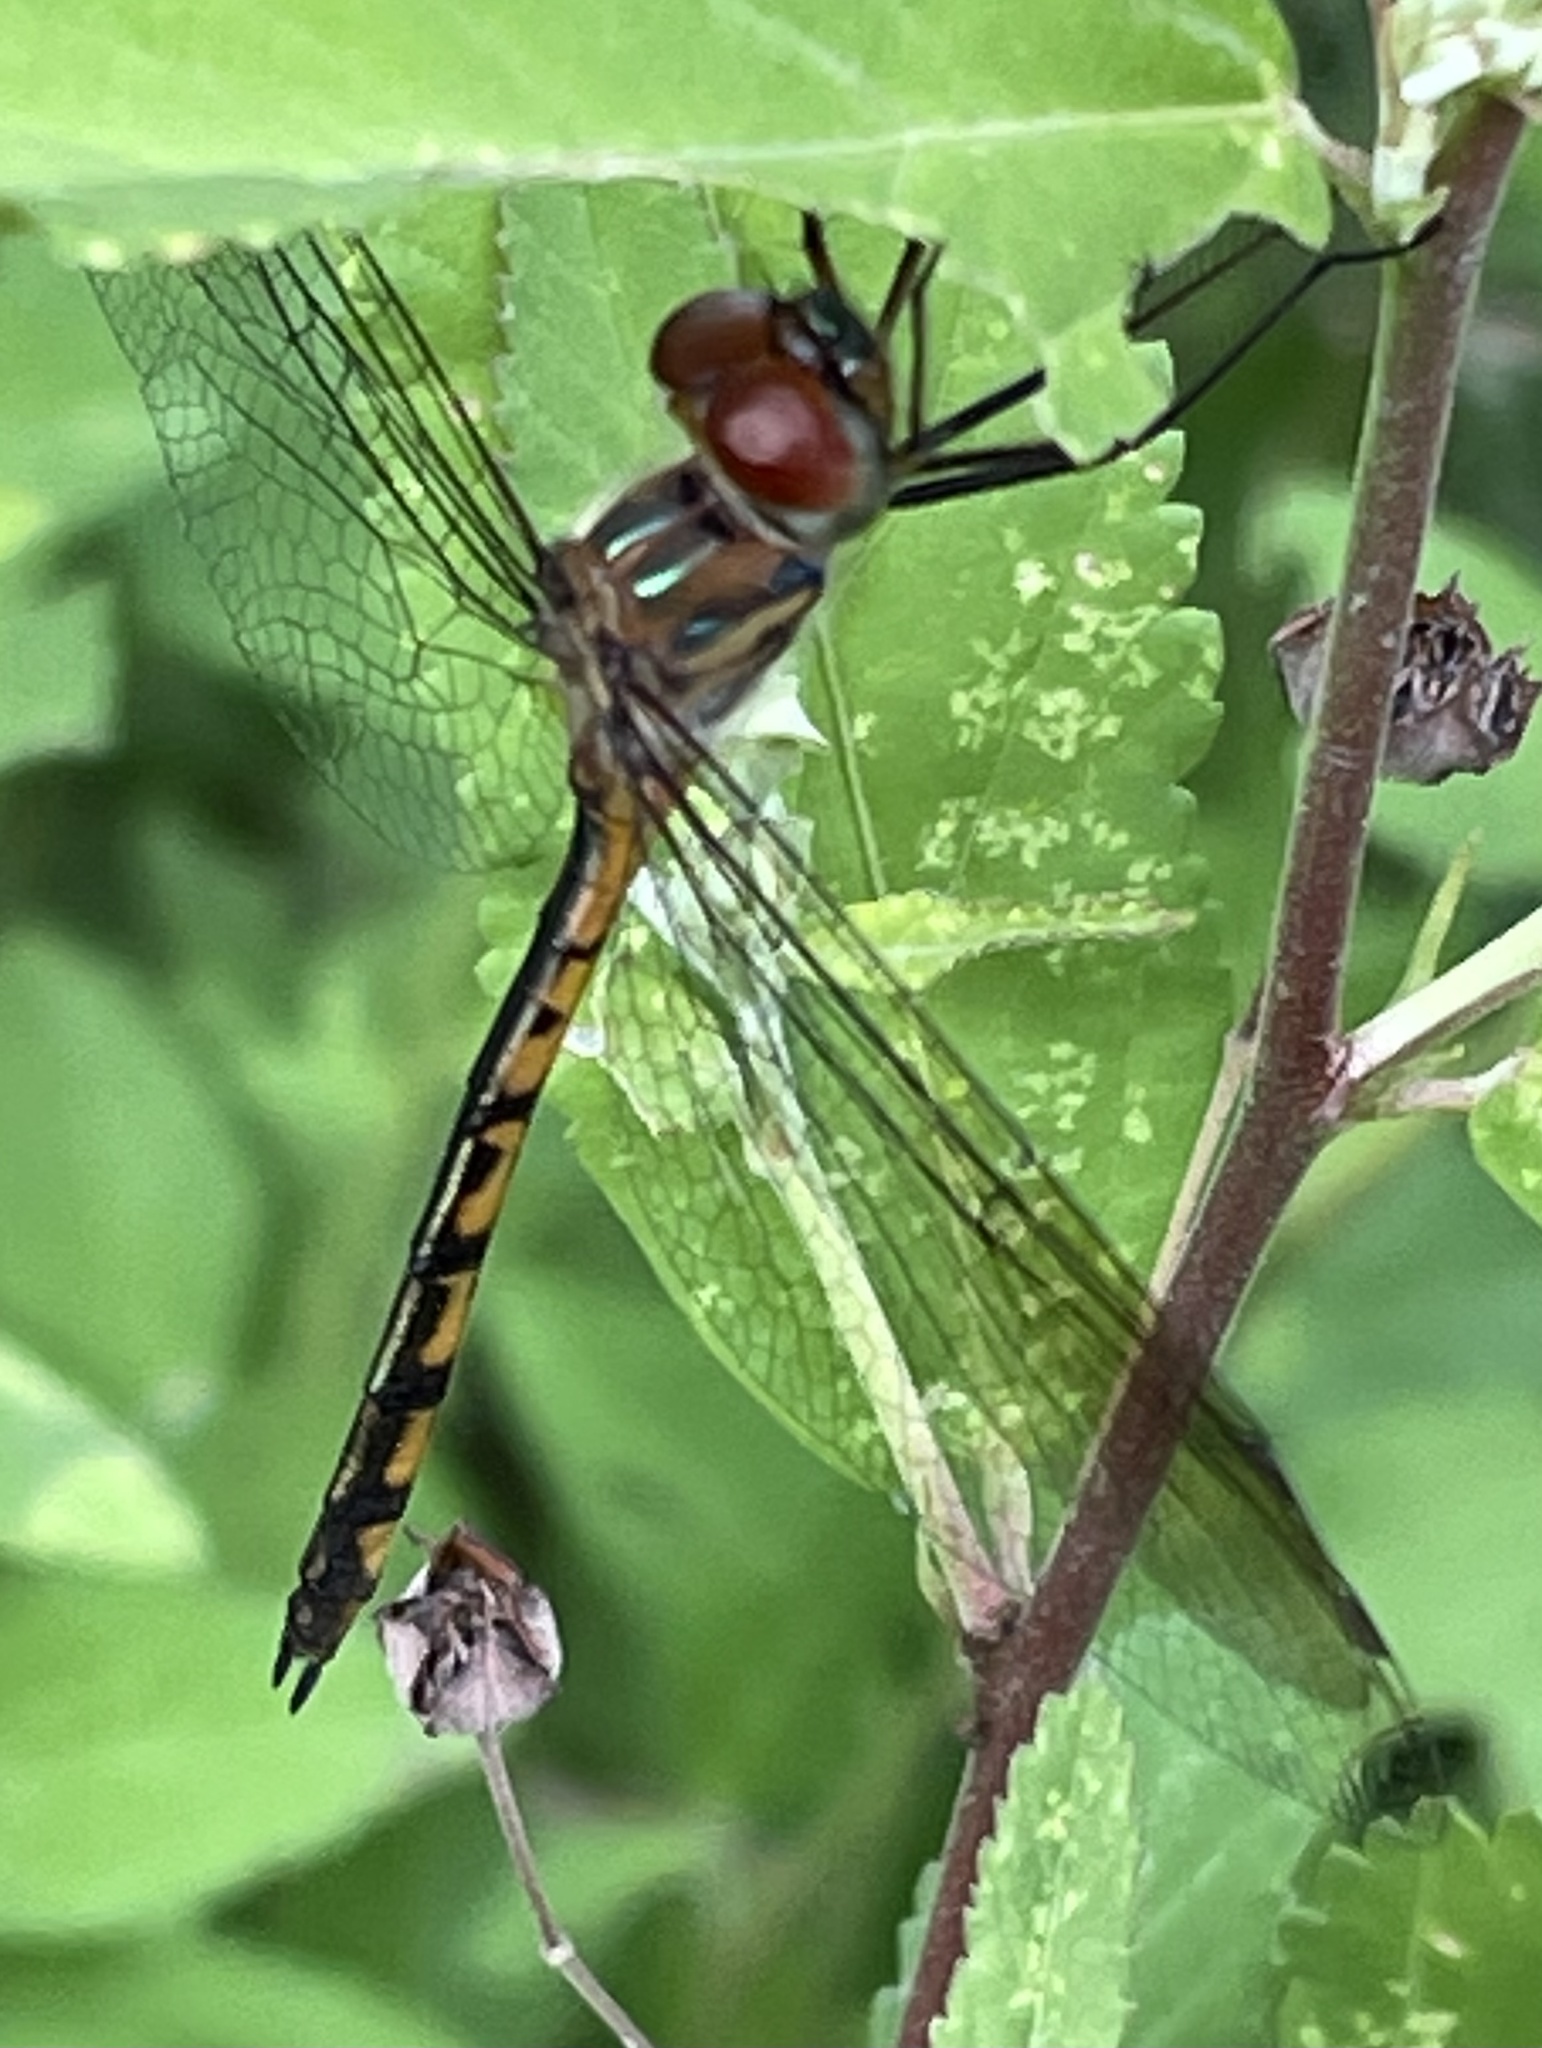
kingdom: Animalia
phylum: Arthropoda
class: Insecta
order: Odonata
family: Corduliidae
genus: Hemicordulia
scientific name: Hemicordulia continentalis
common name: Fat-bellied emerald
